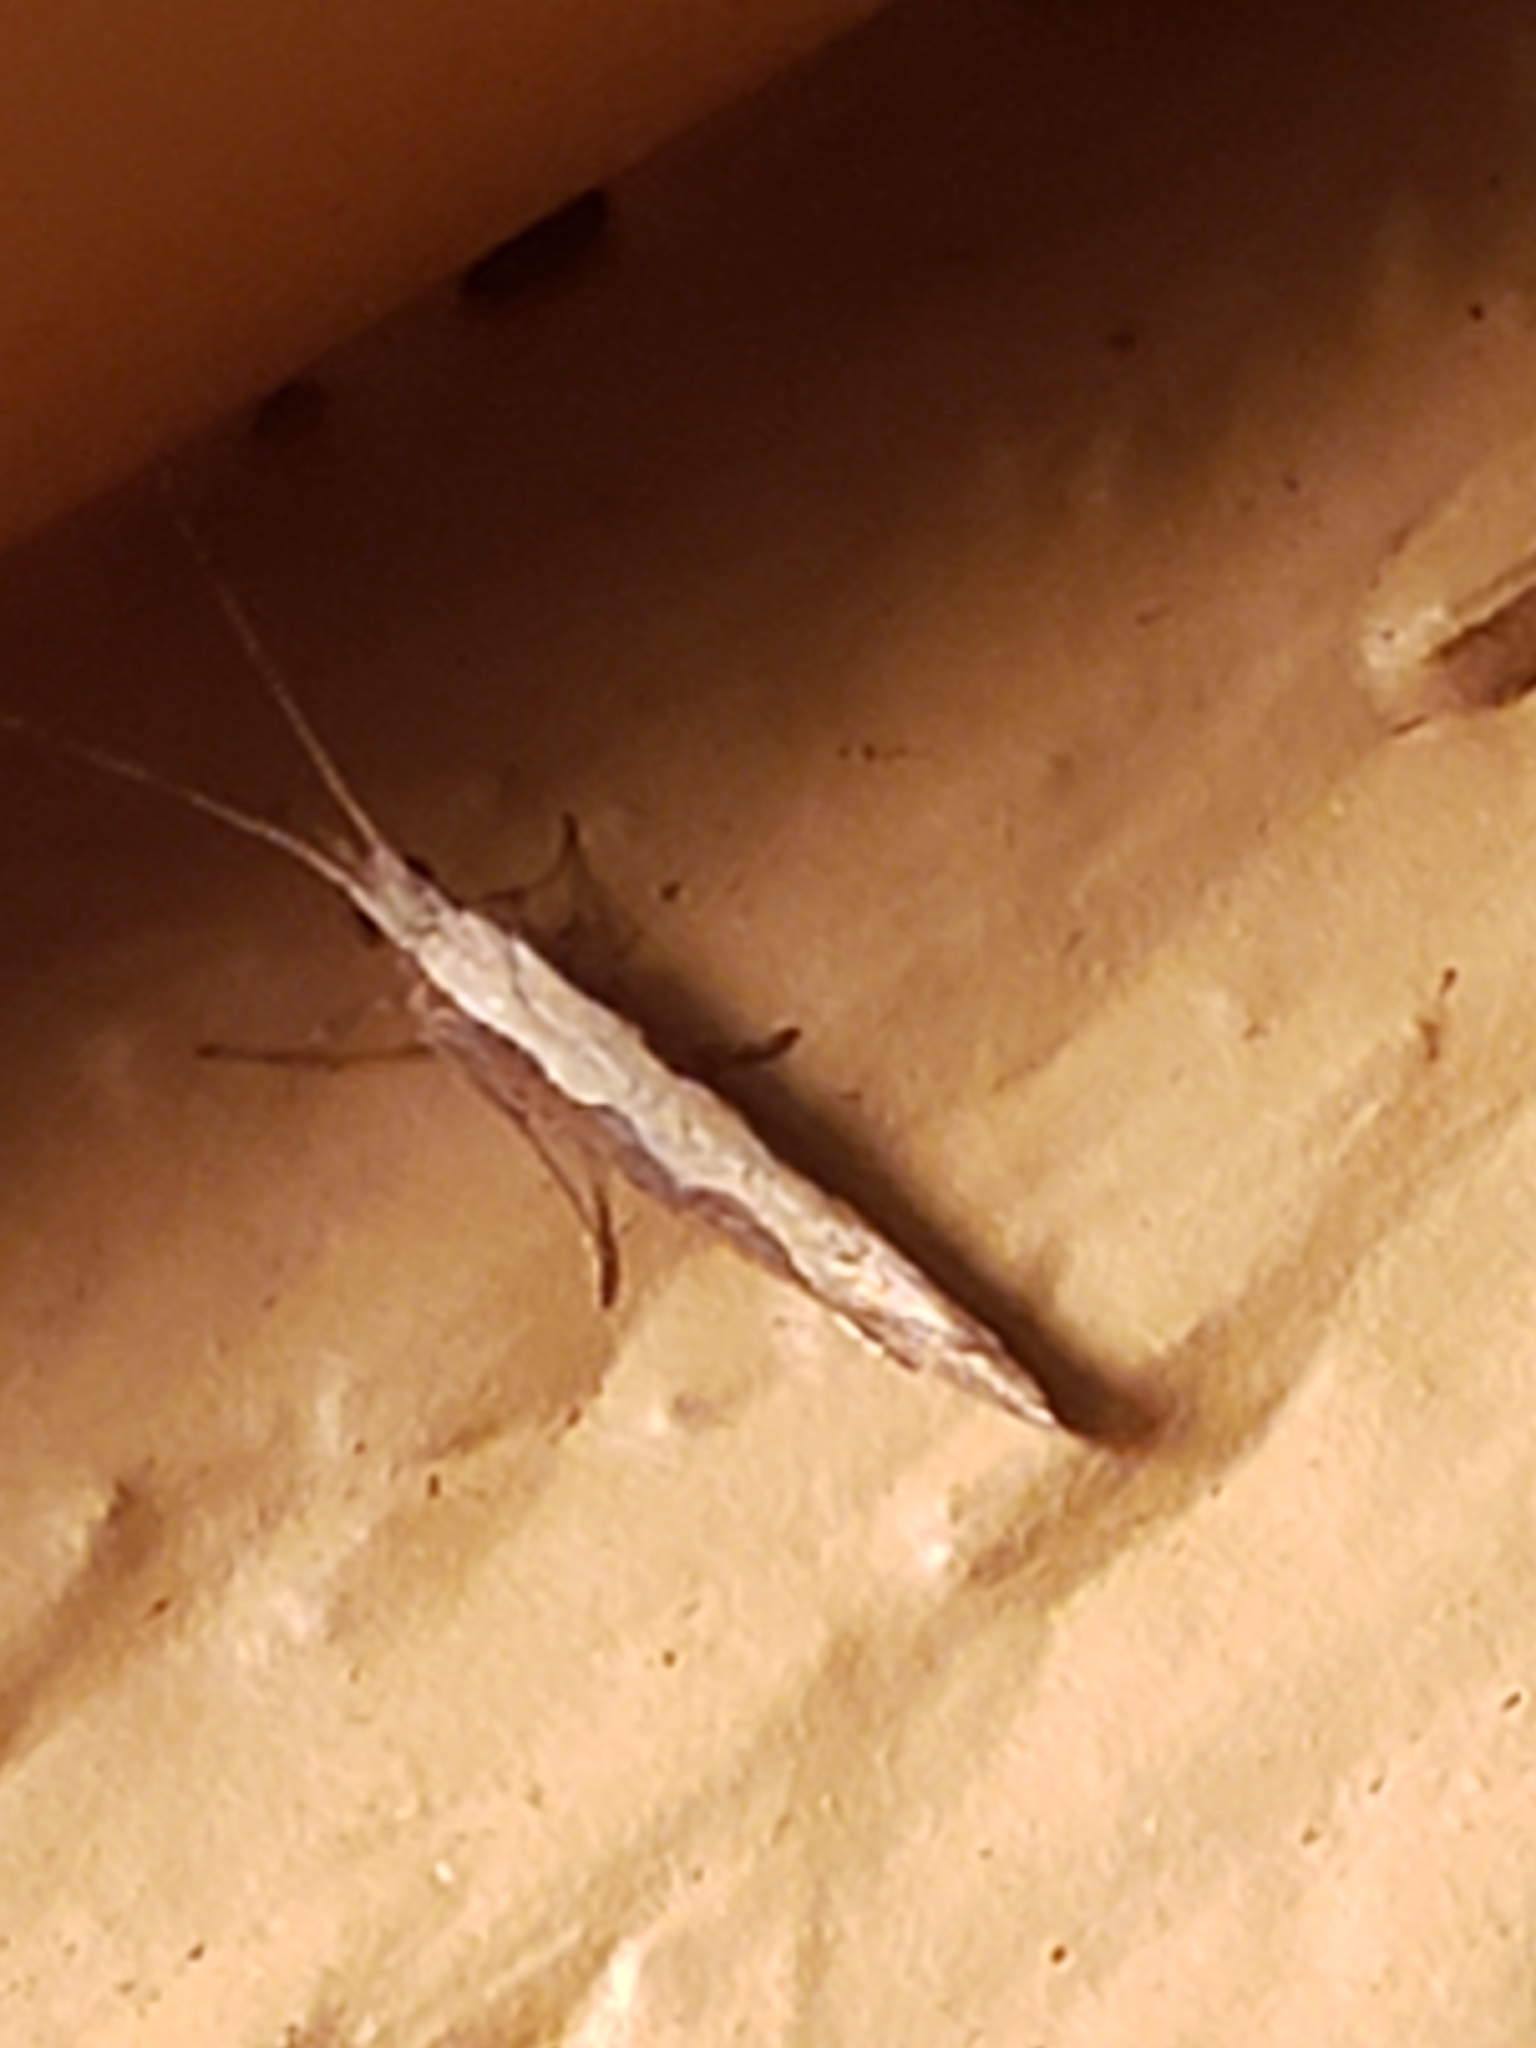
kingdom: Animalia
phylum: Arthropoda
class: Insecta
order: Lepidoptera
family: Plutellidae
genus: Plutella
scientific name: Plutella xylostella
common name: Diamond-back moth
